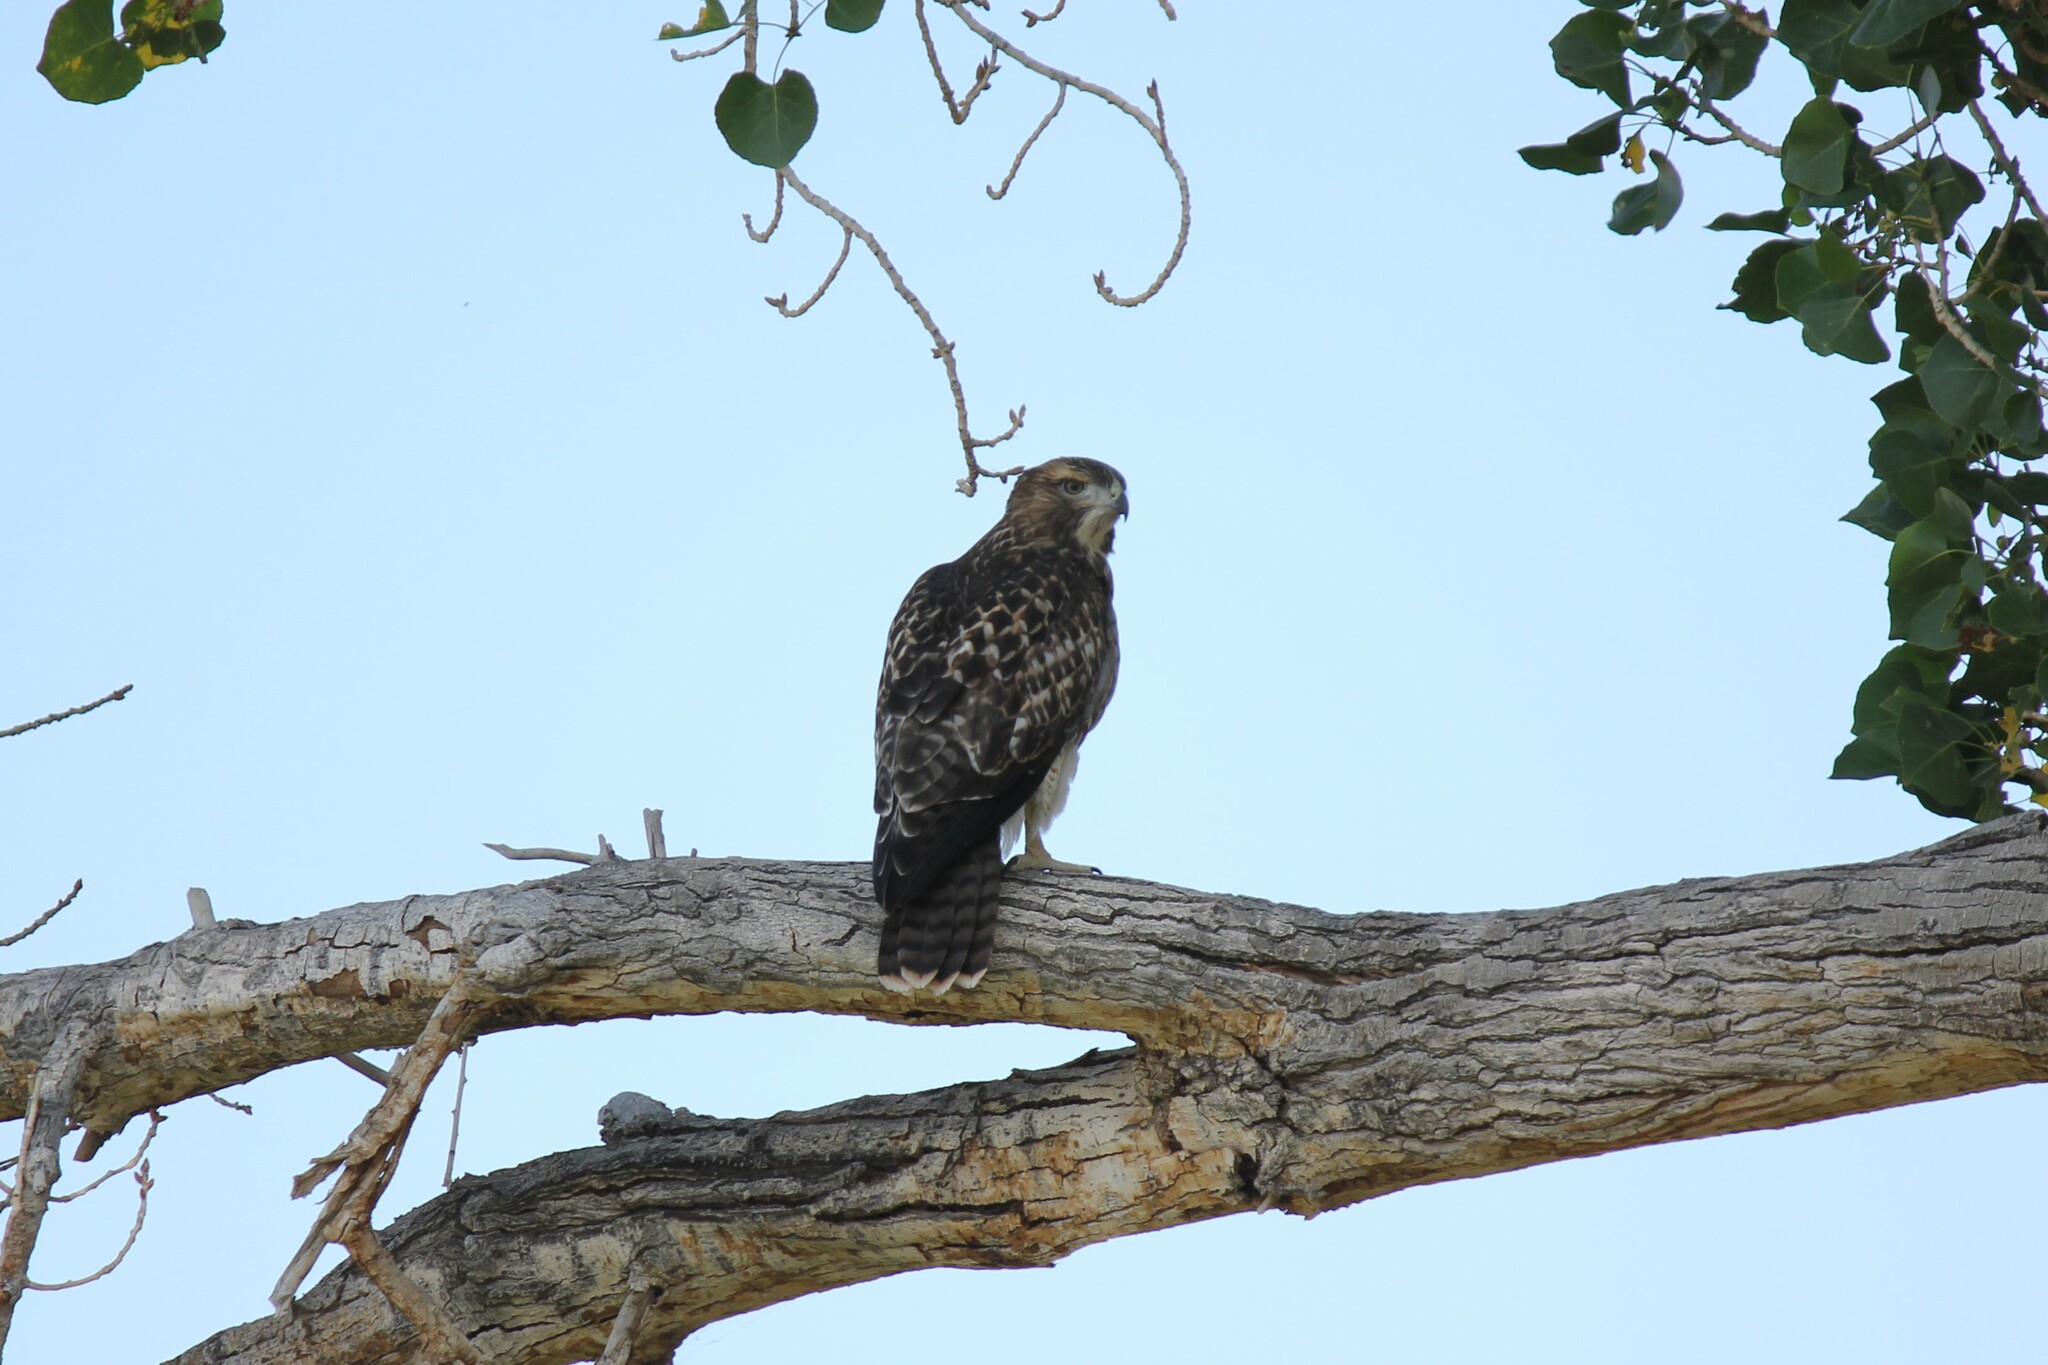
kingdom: Animalia
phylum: Chordata
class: Aves
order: Accipitriformes
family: Accipitridae
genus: Buteo
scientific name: Buteo jamaicensis
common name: Red-tailed hawk
